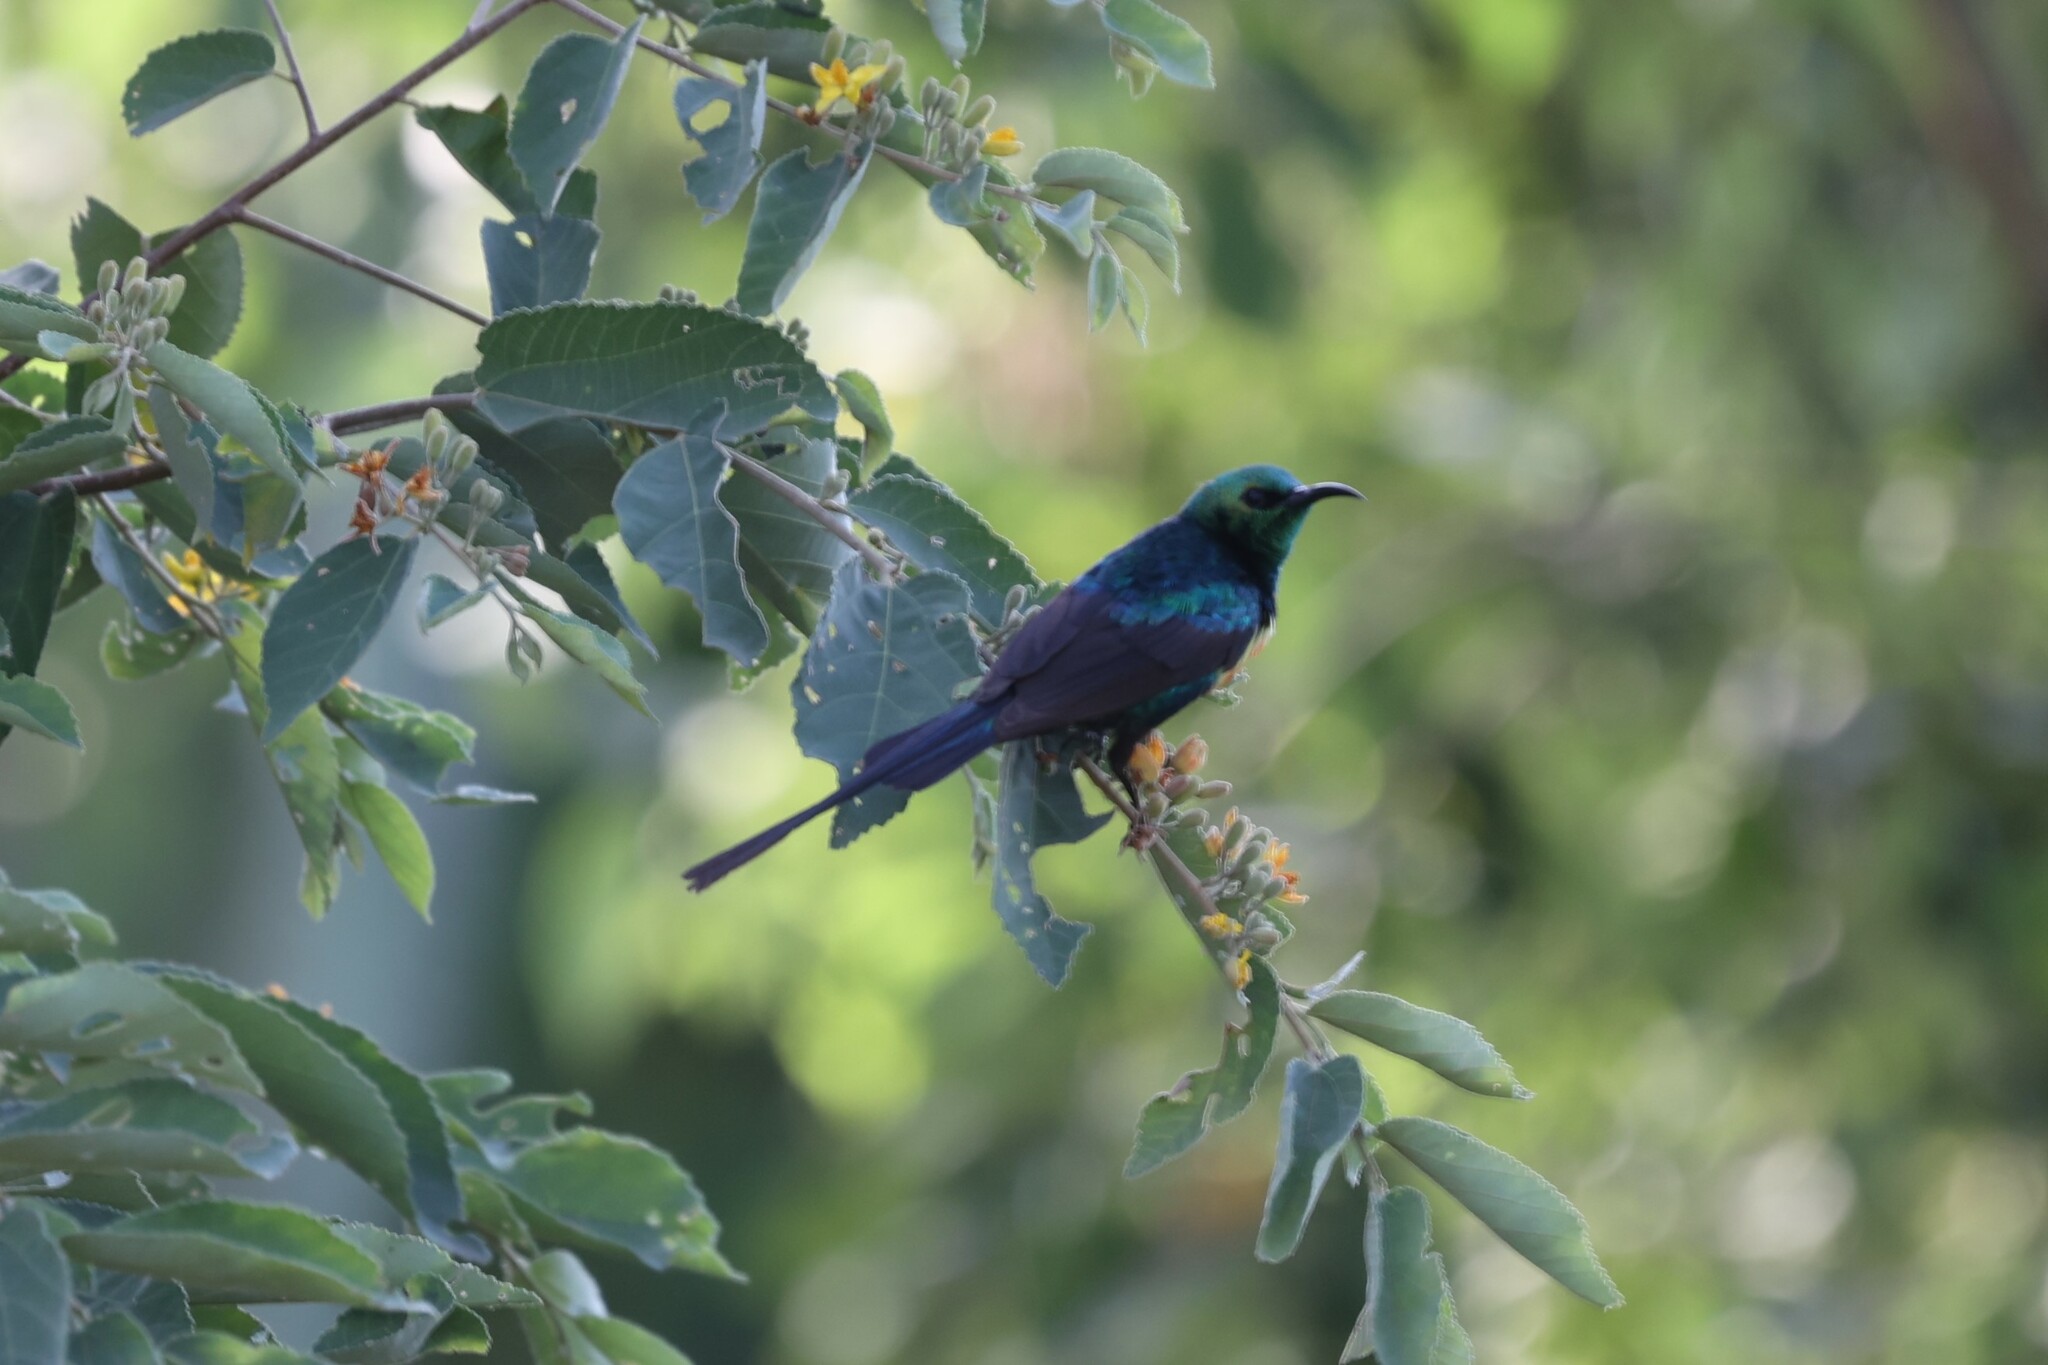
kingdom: Animalia
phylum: Chordata
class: Aves
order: Passeriformes
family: Nectariniidae
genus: Cinnyris
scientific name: Cinnyris pulchellus
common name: Beautiful sunbird
